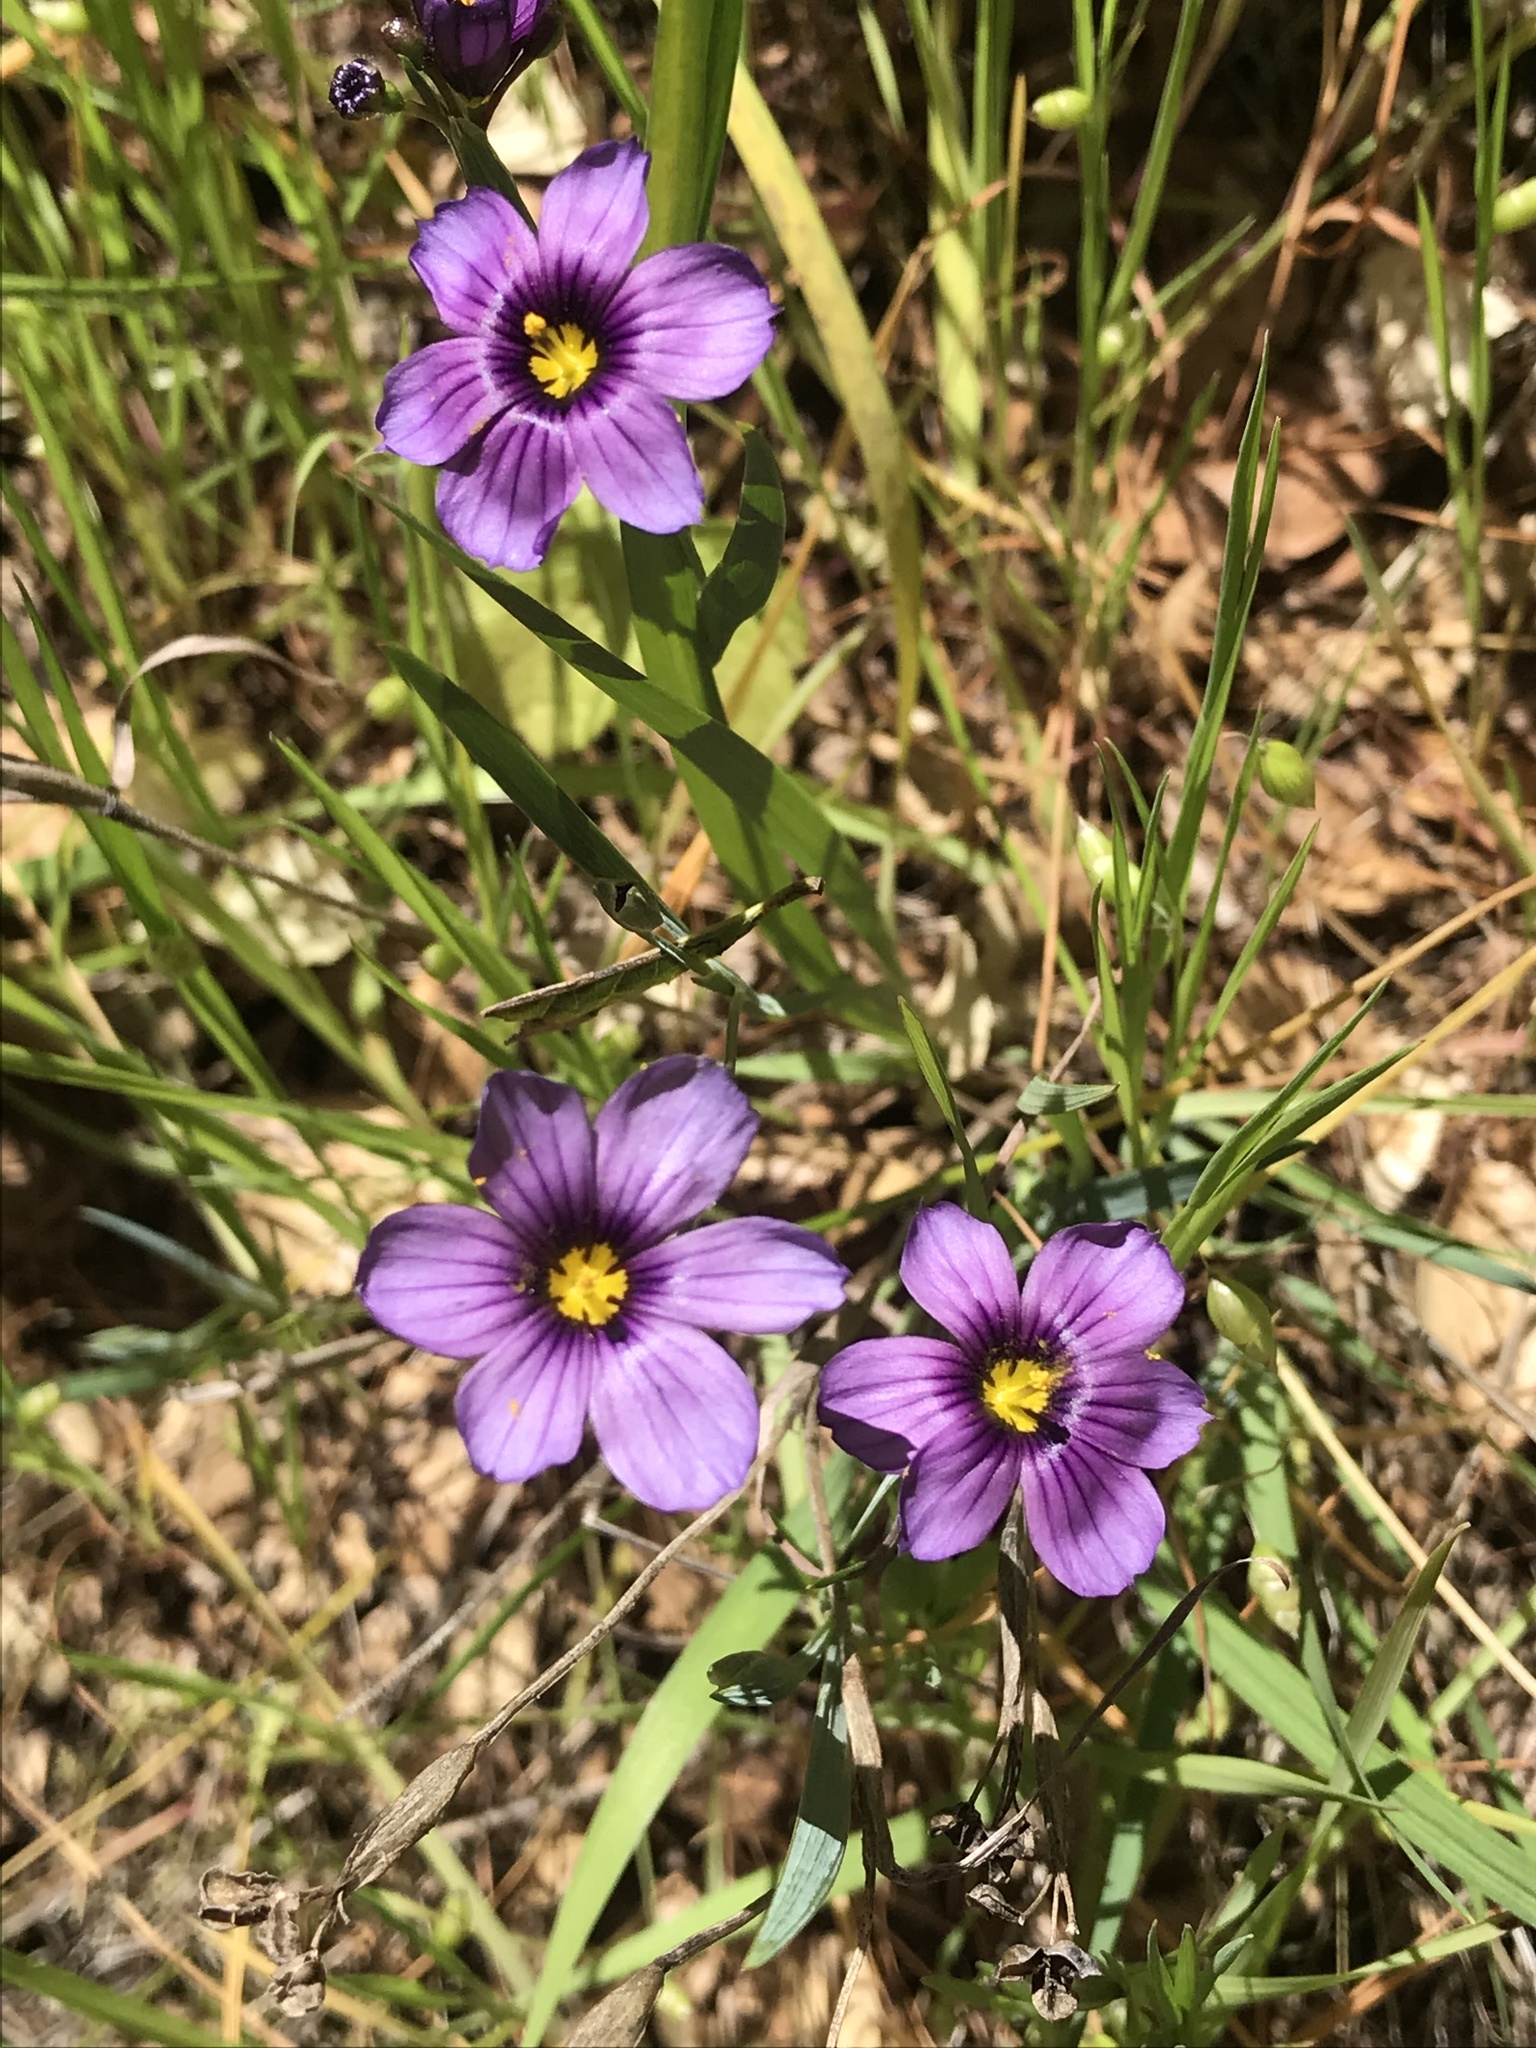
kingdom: Plantae
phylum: Tracheophyta
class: Liliopsida
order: Asparagales
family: Iridaceae
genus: Sisyrinchium
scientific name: Sisyrinchium bellum
